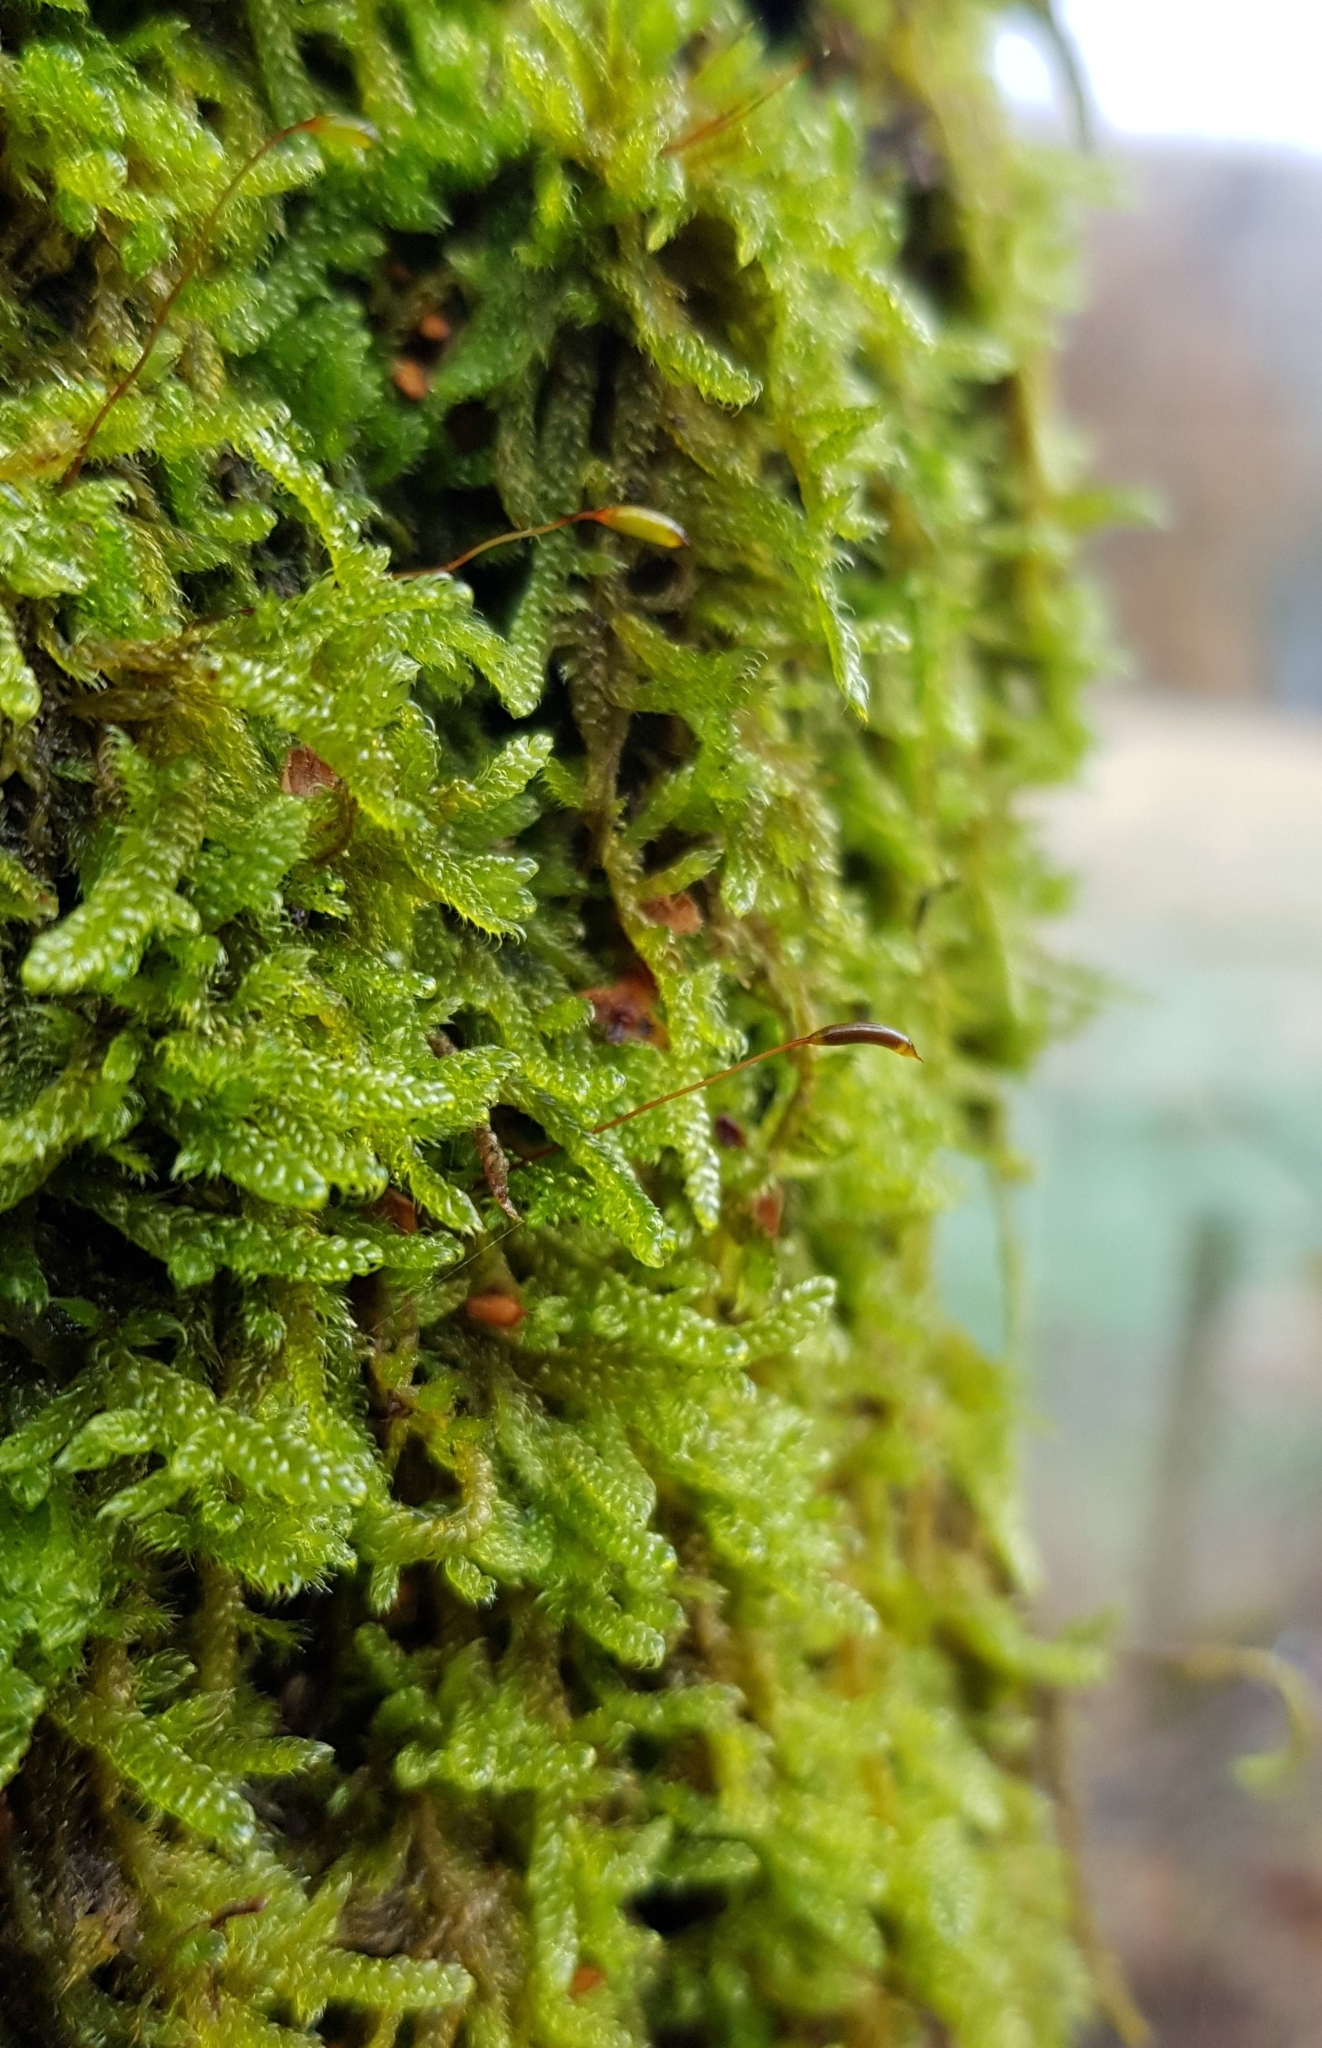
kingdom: Plantae
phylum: Bryophyta
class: Bryopsida
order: Hypnales
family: Hypnaceae
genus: Hypnum
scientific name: Hypnum cupressiforme
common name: Cypress-leaved plait-moss
